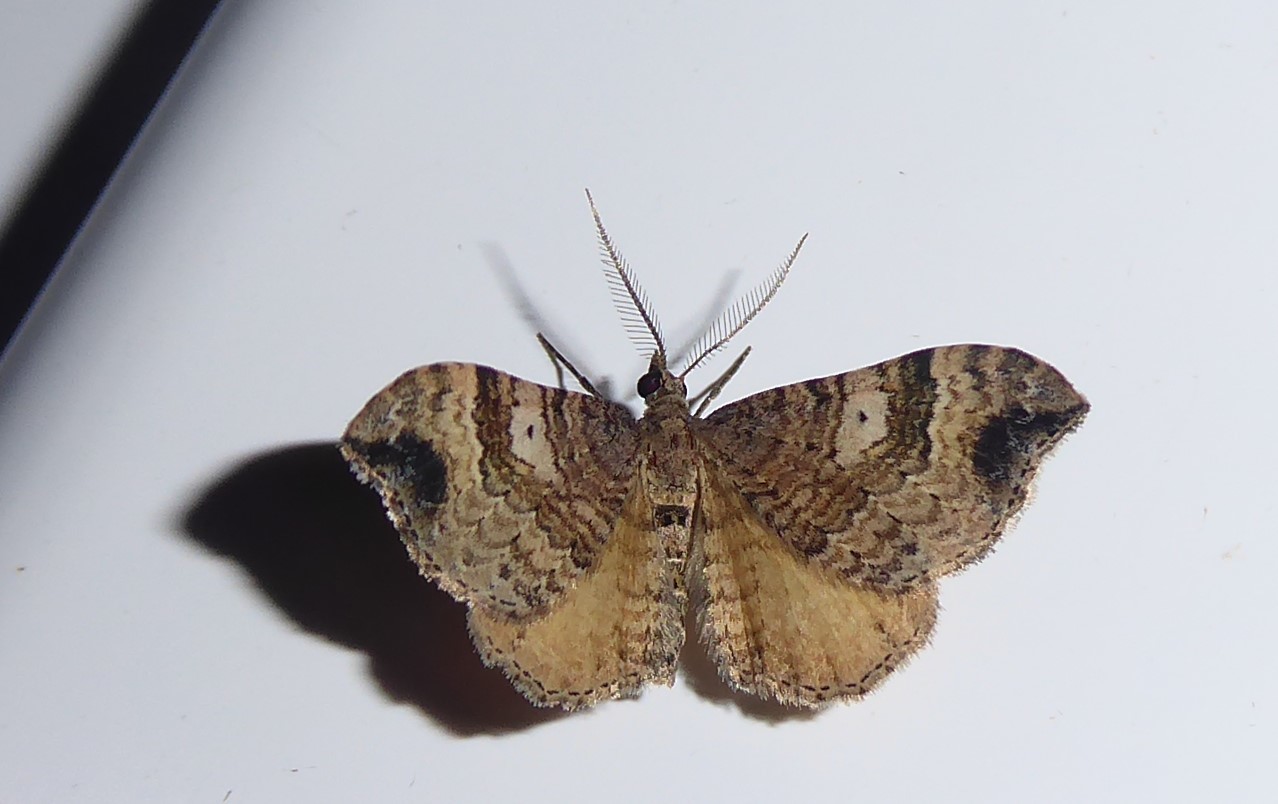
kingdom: Animalia
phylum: Arthropoda
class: Insecta
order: Lepidoptera
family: Geometridae
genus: Homodotis
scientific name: Homodotis falcata
